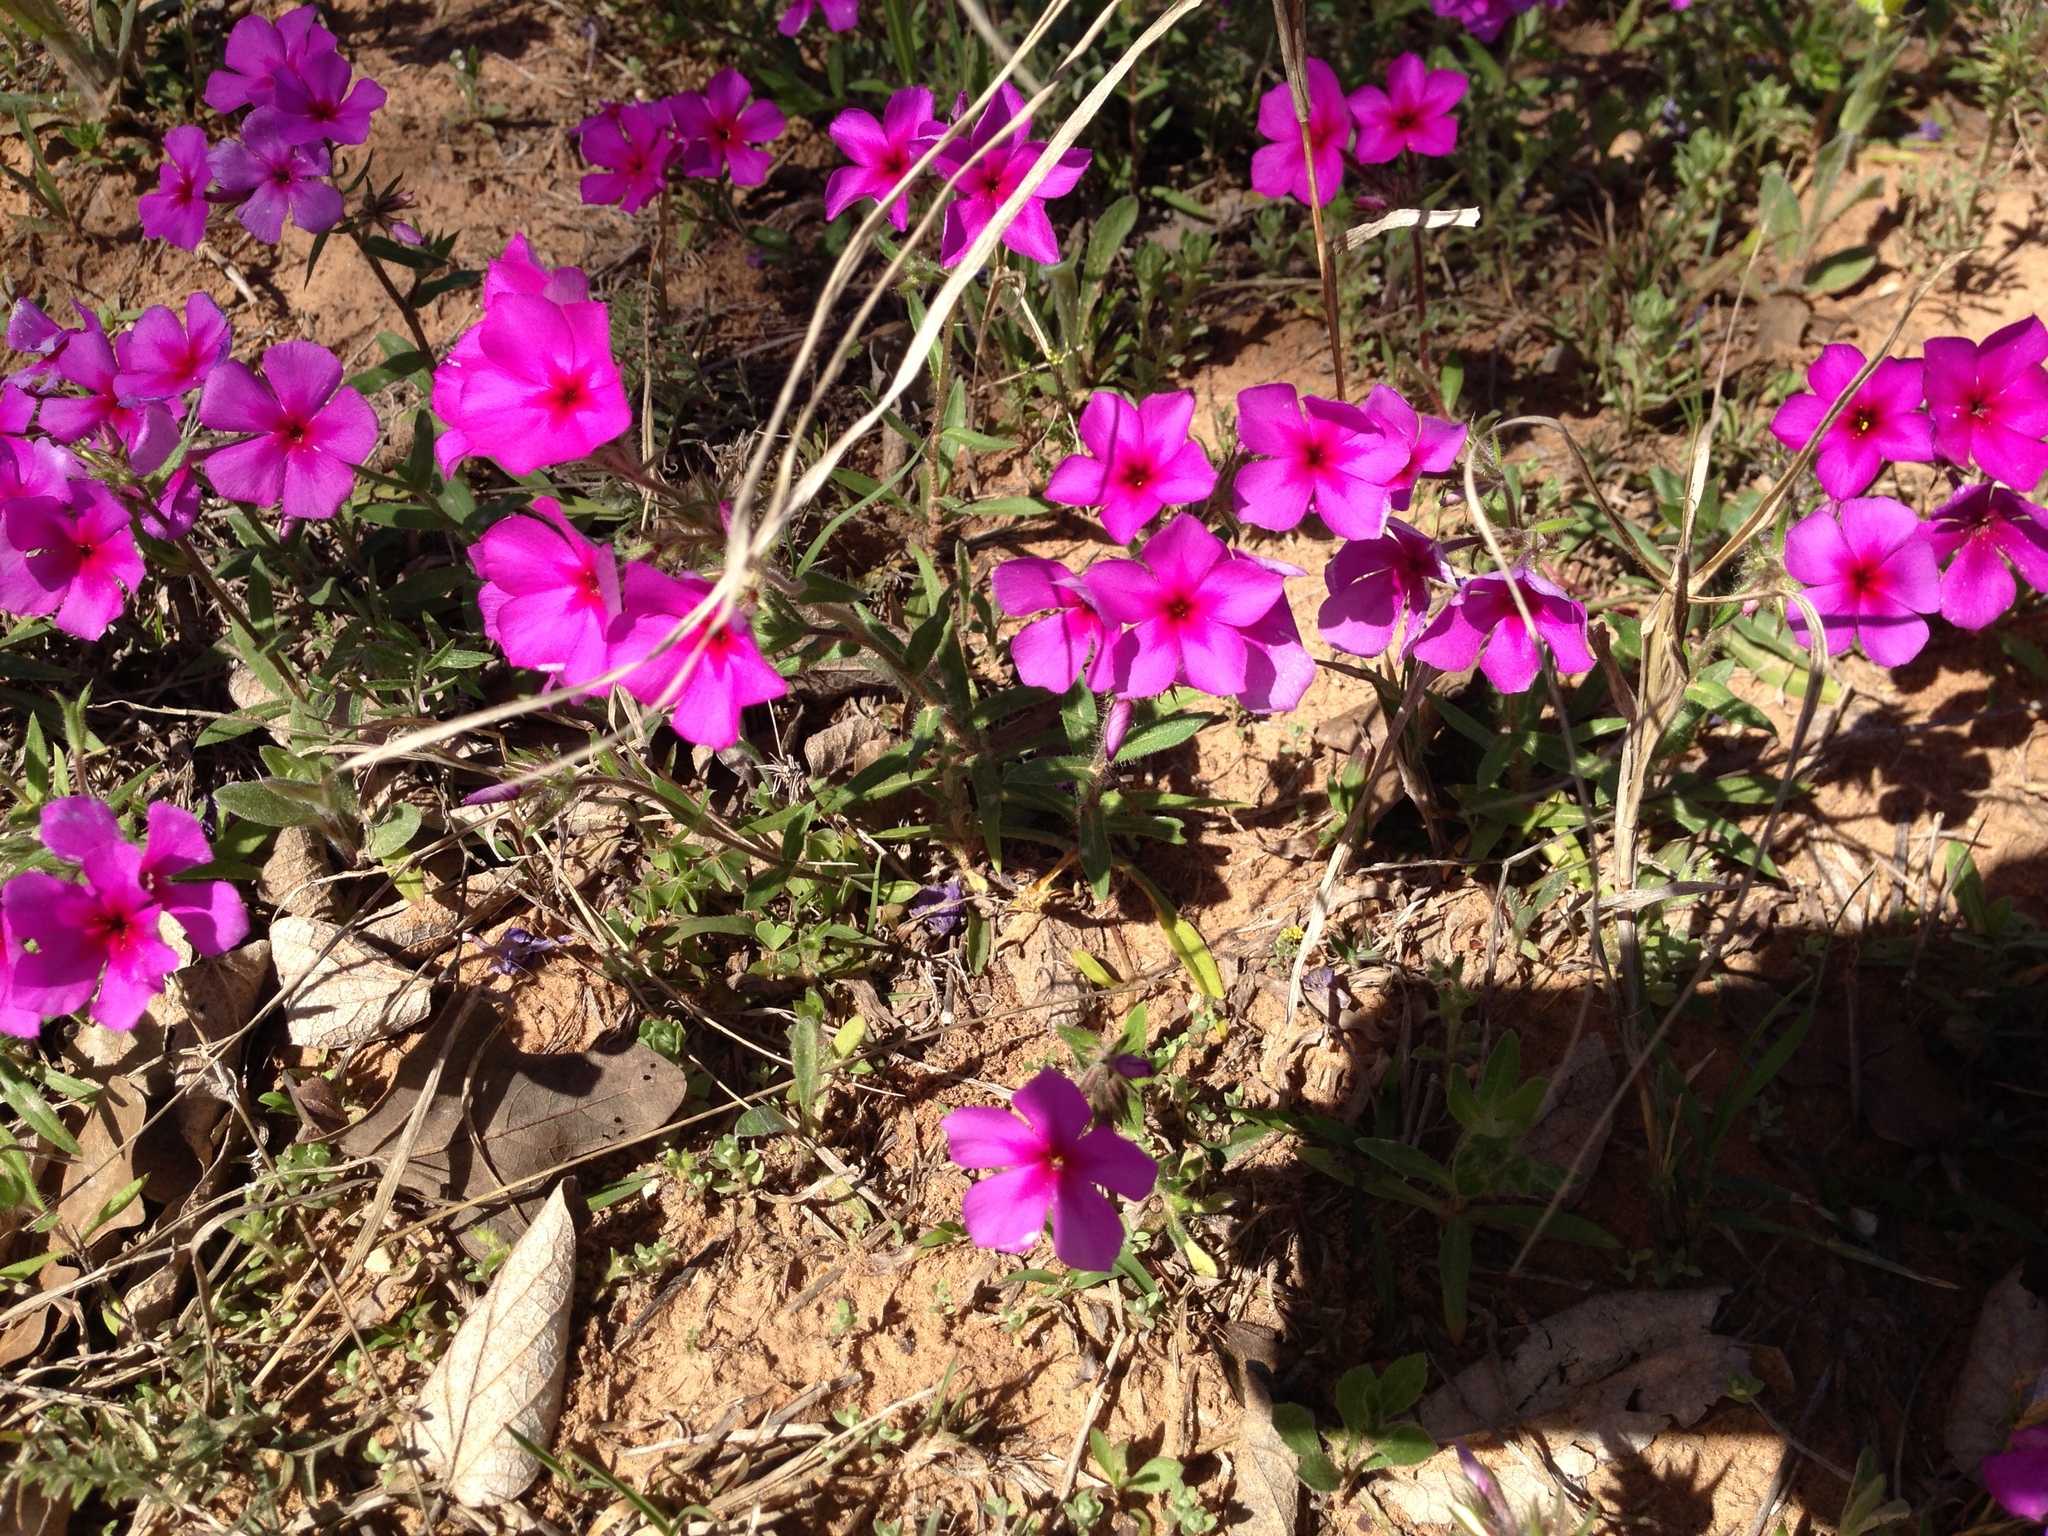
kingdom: Plantae
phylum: Tracheophyta
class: Magnoliopsida
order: Ericales
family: Polemoniaceae
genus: Phlox
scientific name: Phlox drummondii
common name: Drummond's phlox
